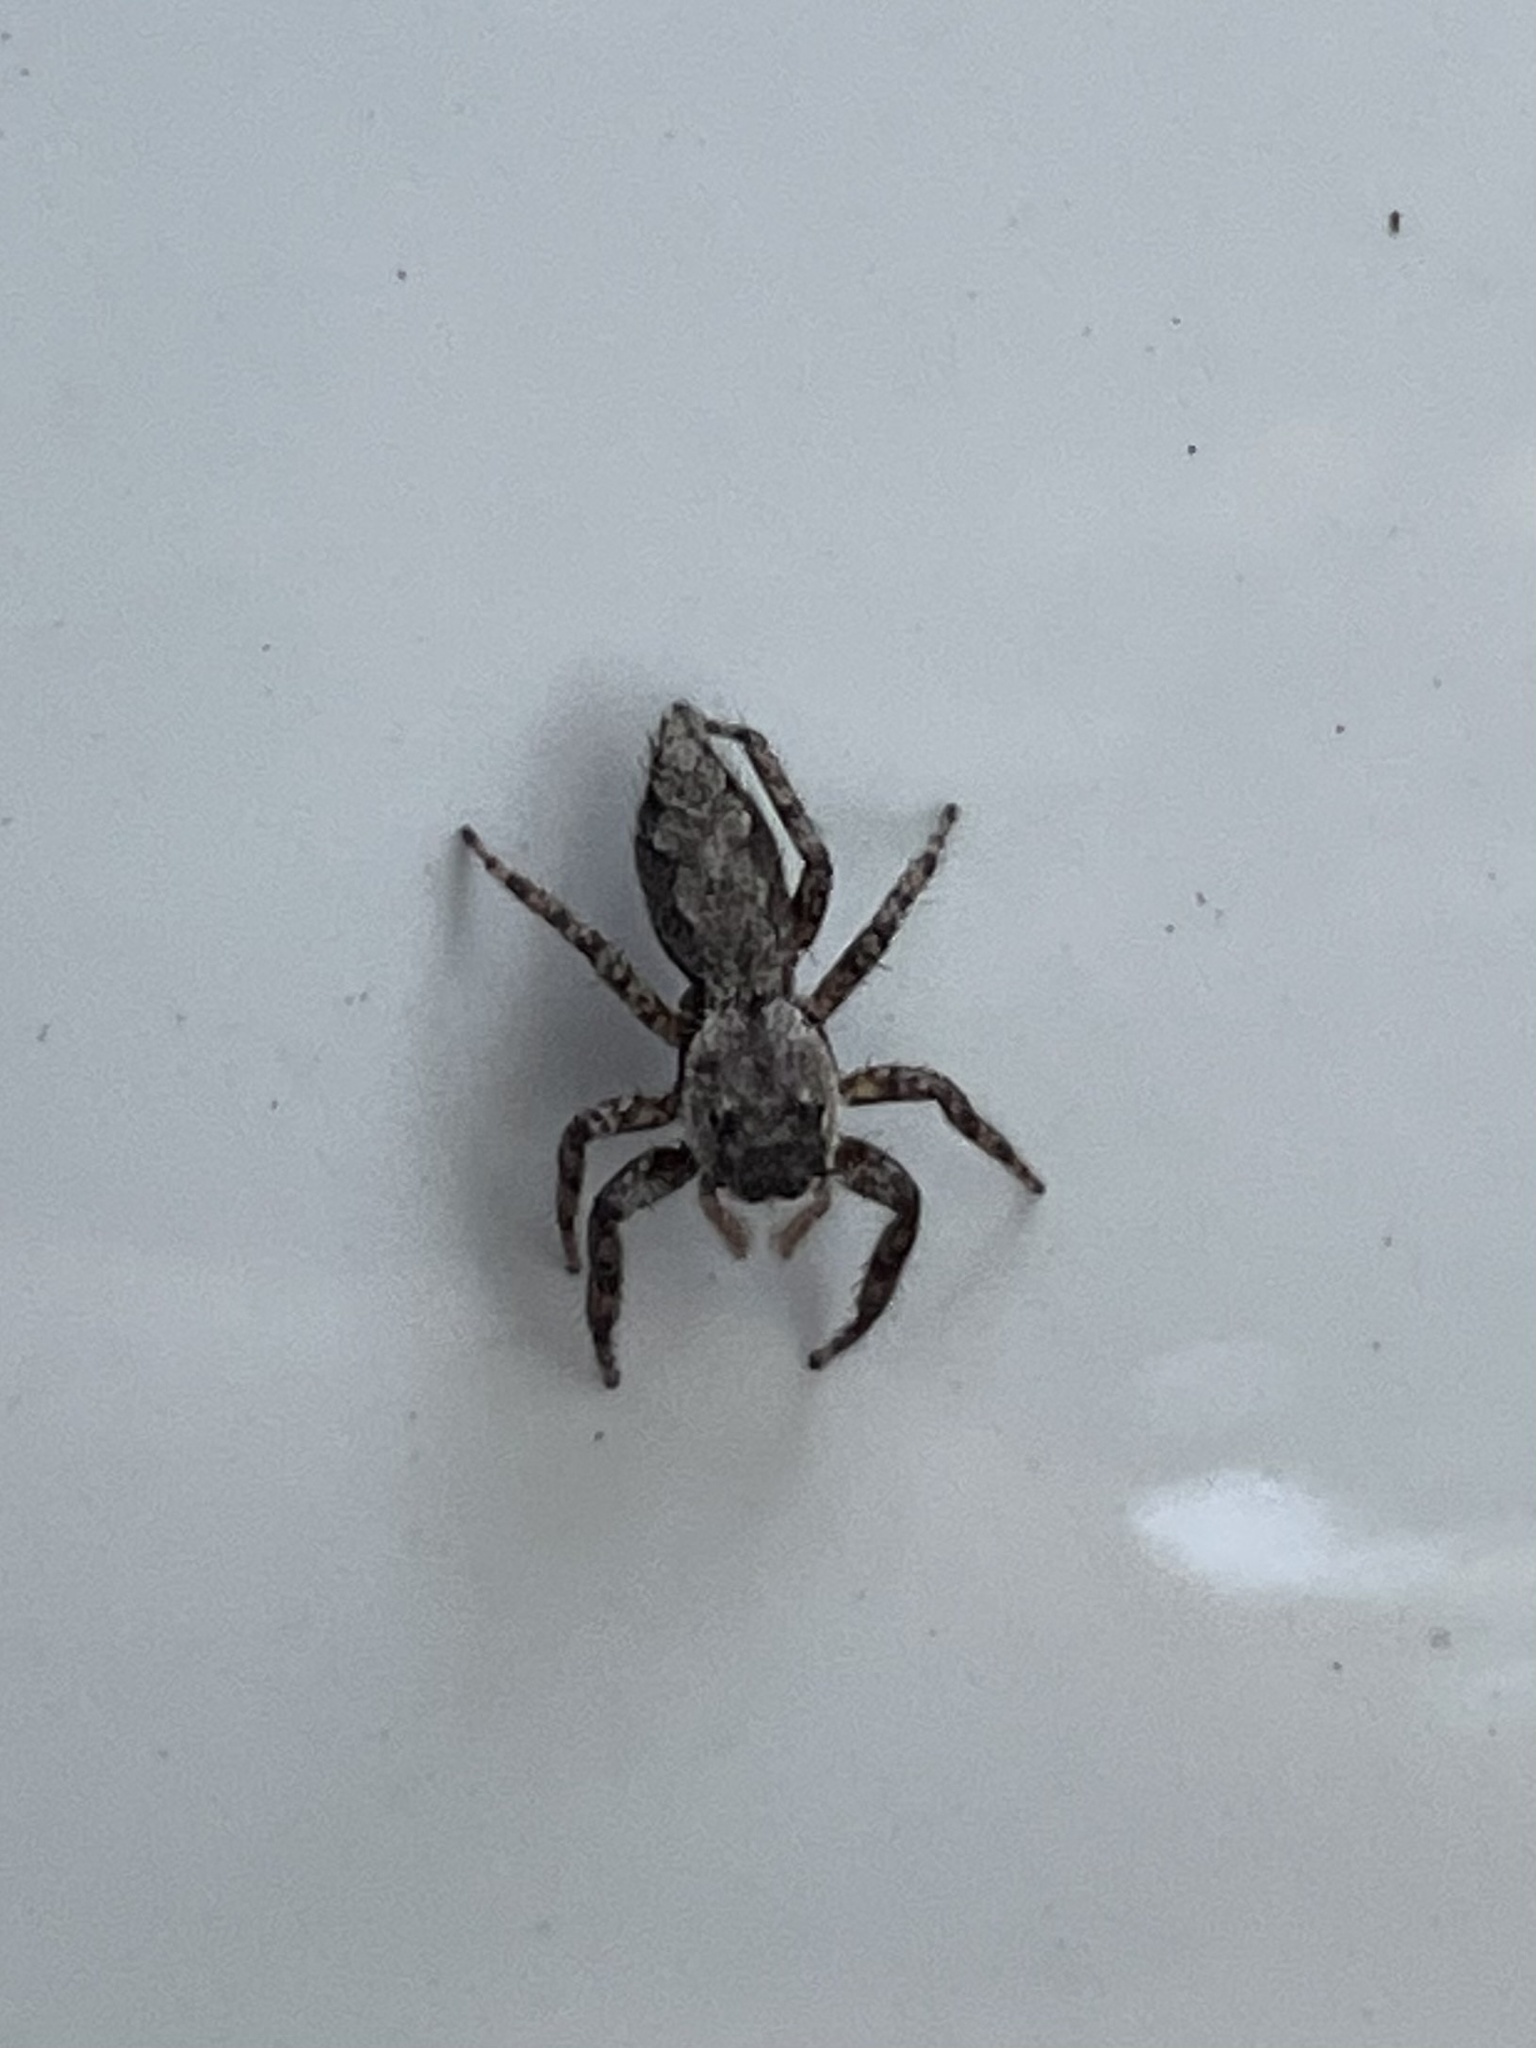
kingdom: Animalia
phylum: Arthropoda
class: Arachnida
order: Araneae
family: Salticidae
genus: Platycryptus
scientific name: Platycryptus undatus
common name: Tan jumping spider
